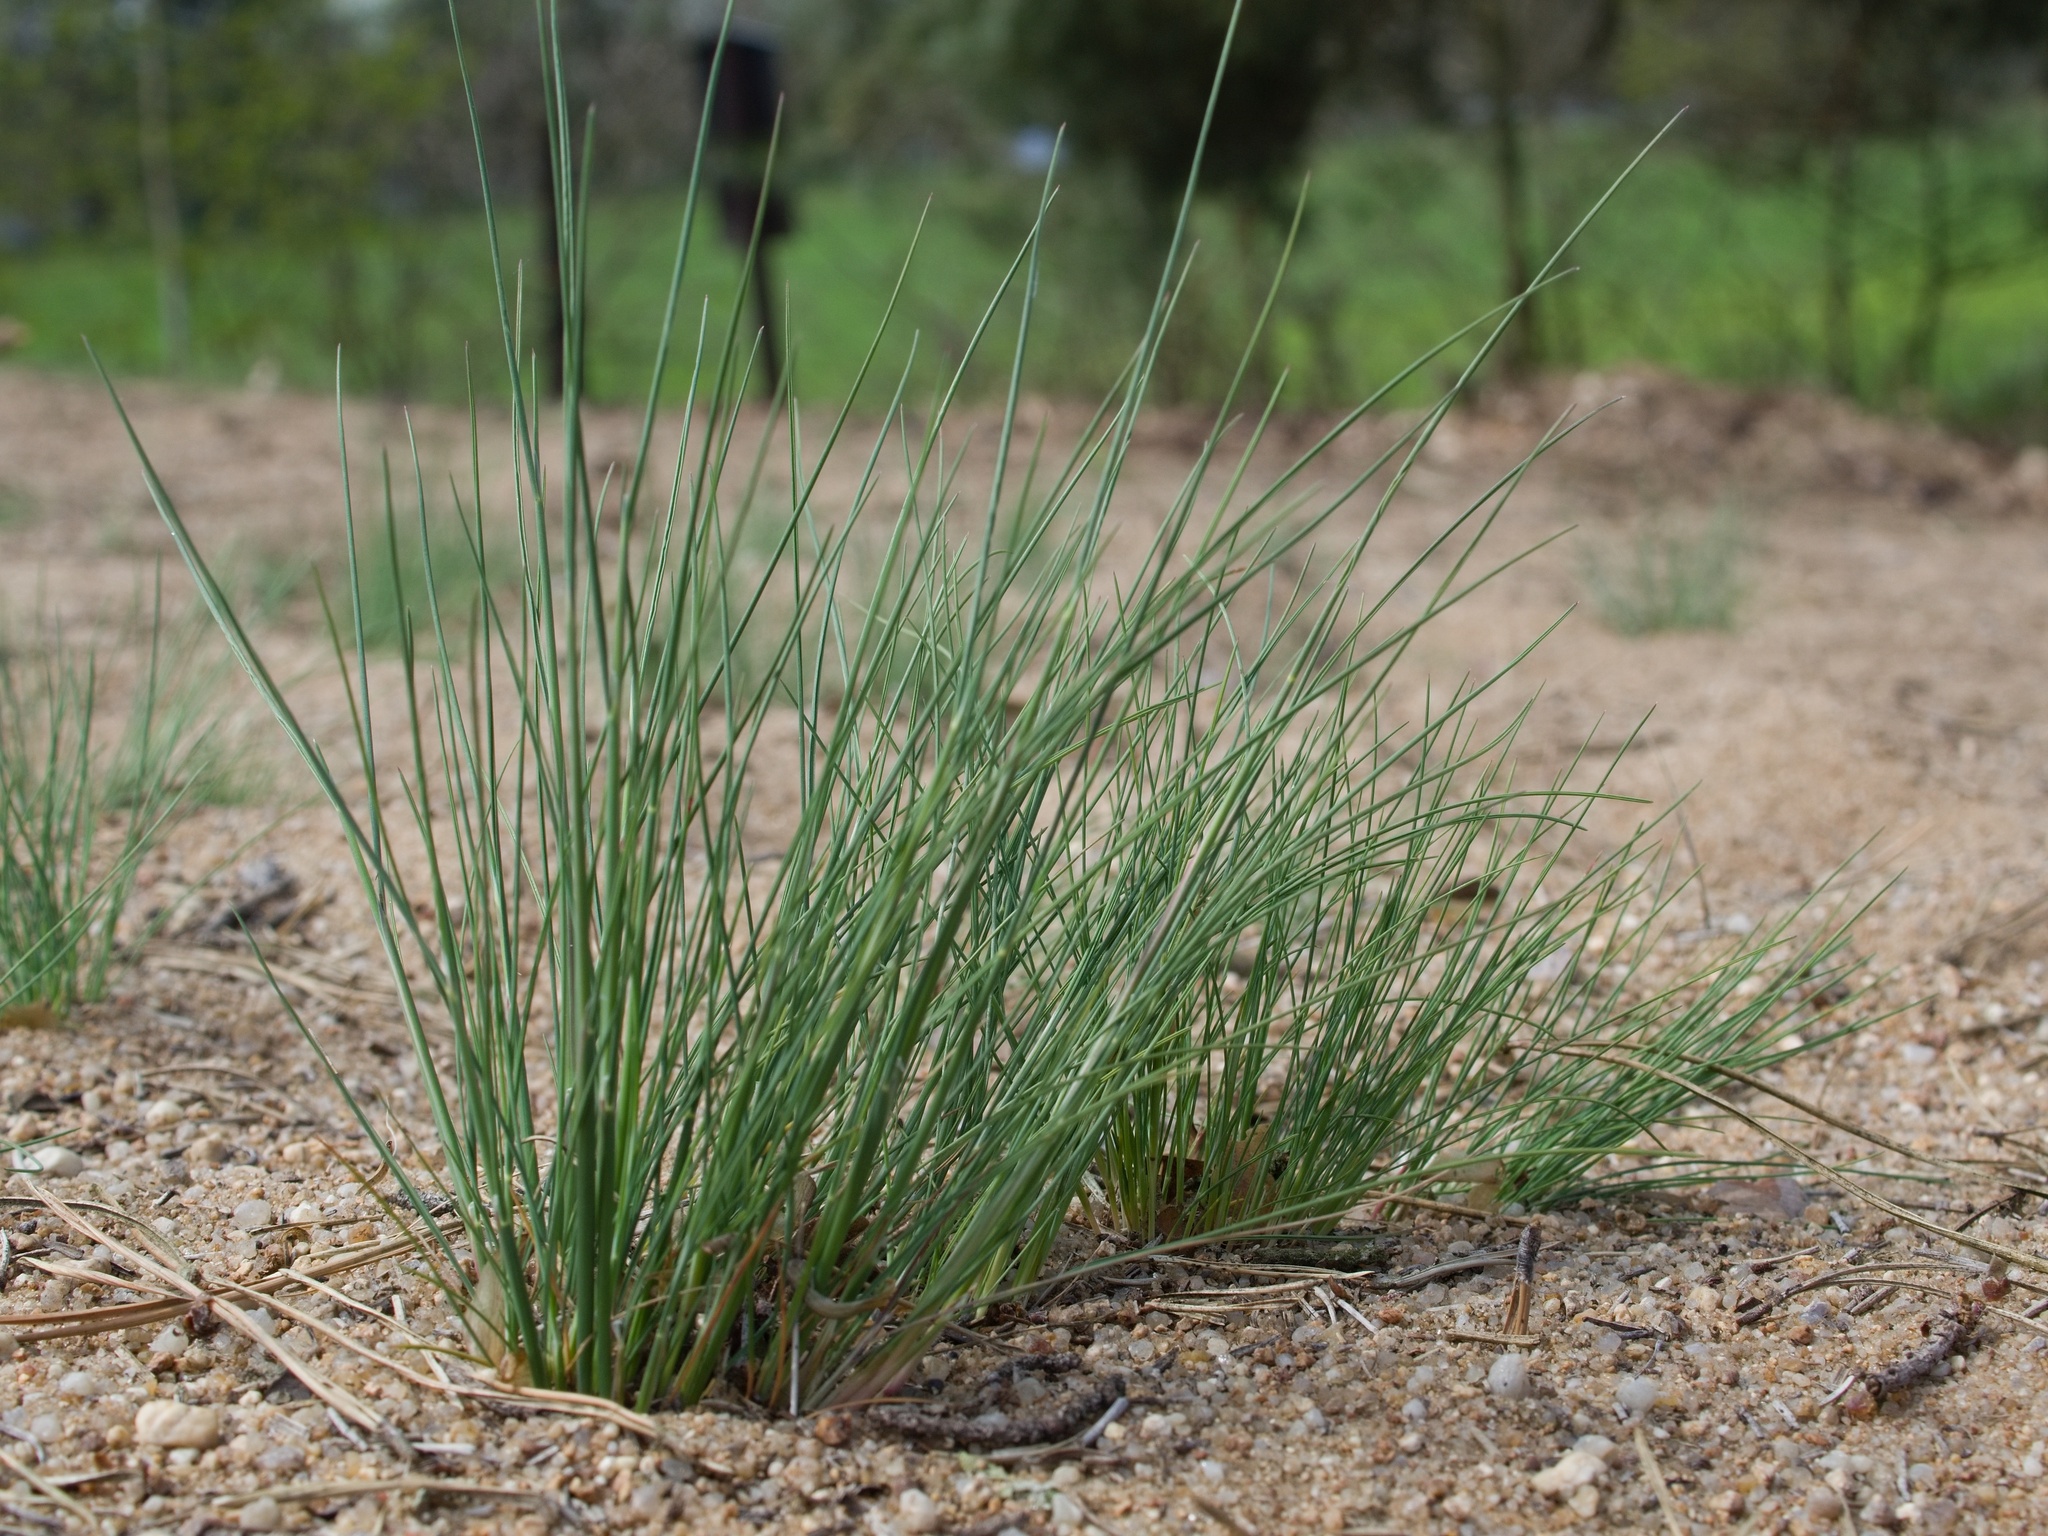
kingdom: Plantae
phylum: Tracheophyta
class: Liliopsida
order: Poales
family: Poaceae
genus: Corynephorus
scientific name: Corynephorus canescens
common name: Grey hair-grass
